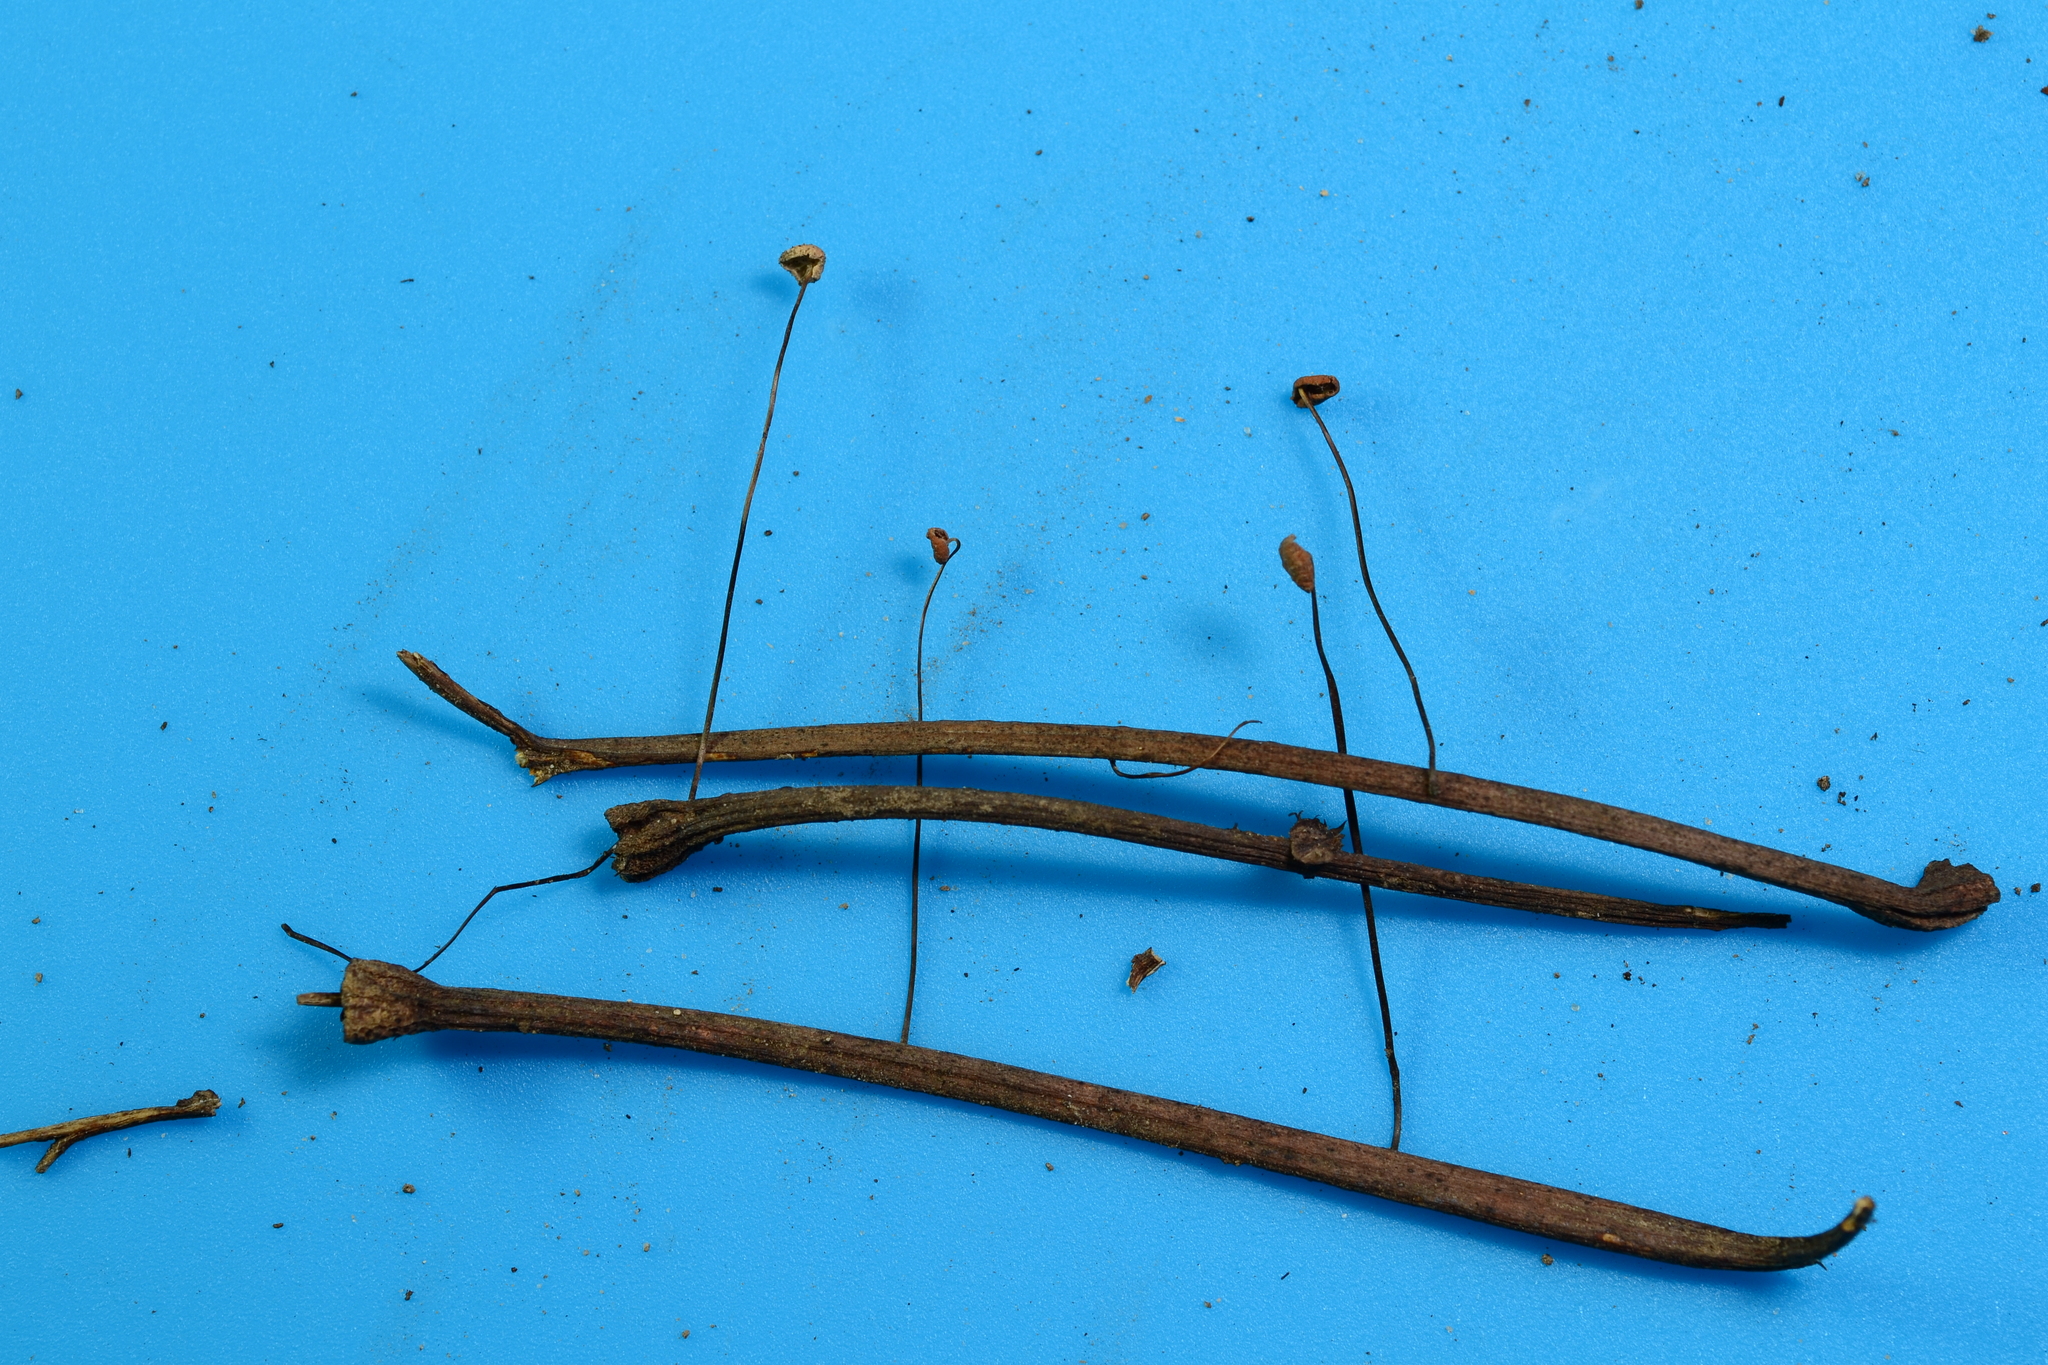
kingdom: Fungi
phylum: Basidiomycota
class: Agaricomycetes
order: Agaricales
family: Marasmiaceae
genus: Marasmius
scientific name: Marasmius felix
